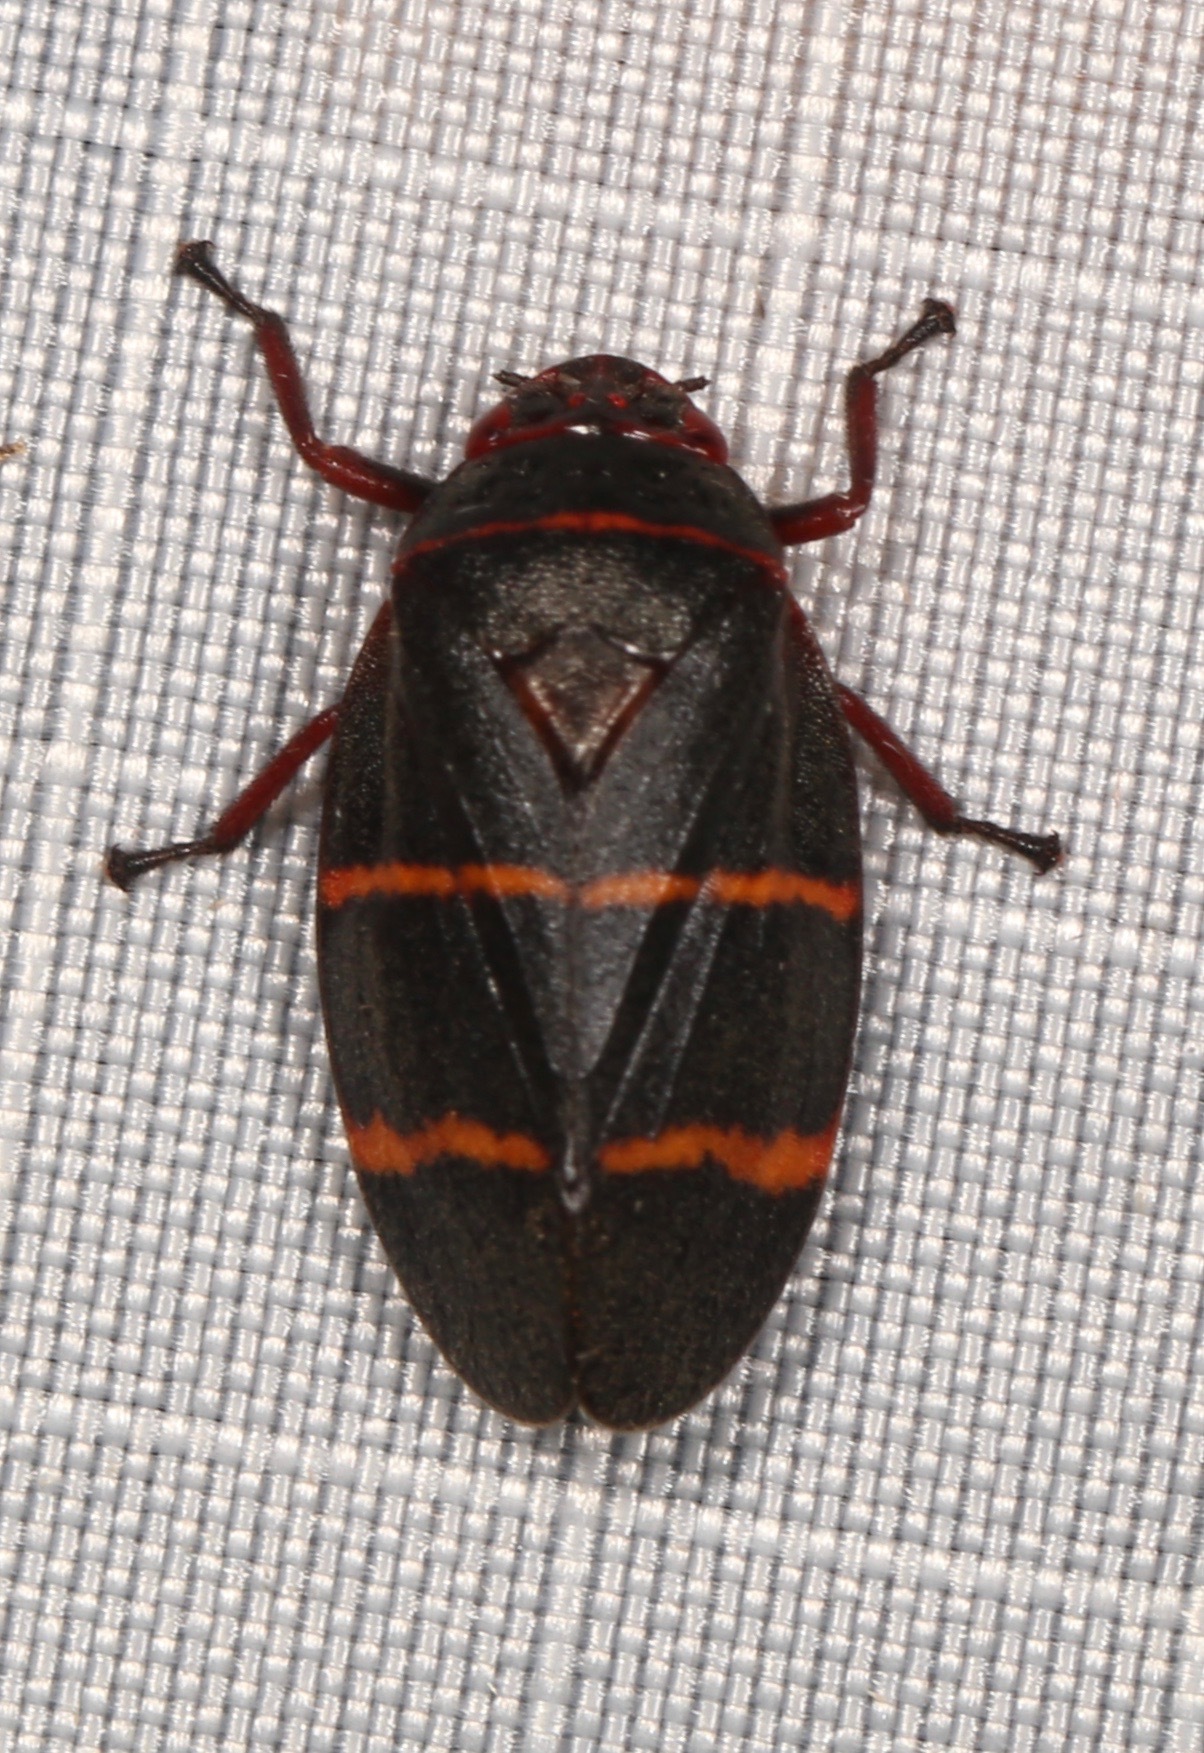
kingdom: Animalia
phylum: Arthropoda
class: Insecta
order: Hemiptera
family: Cercopidae
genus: Prosapia
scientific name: Prosapia bicincta
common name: Twolined spittlebug
